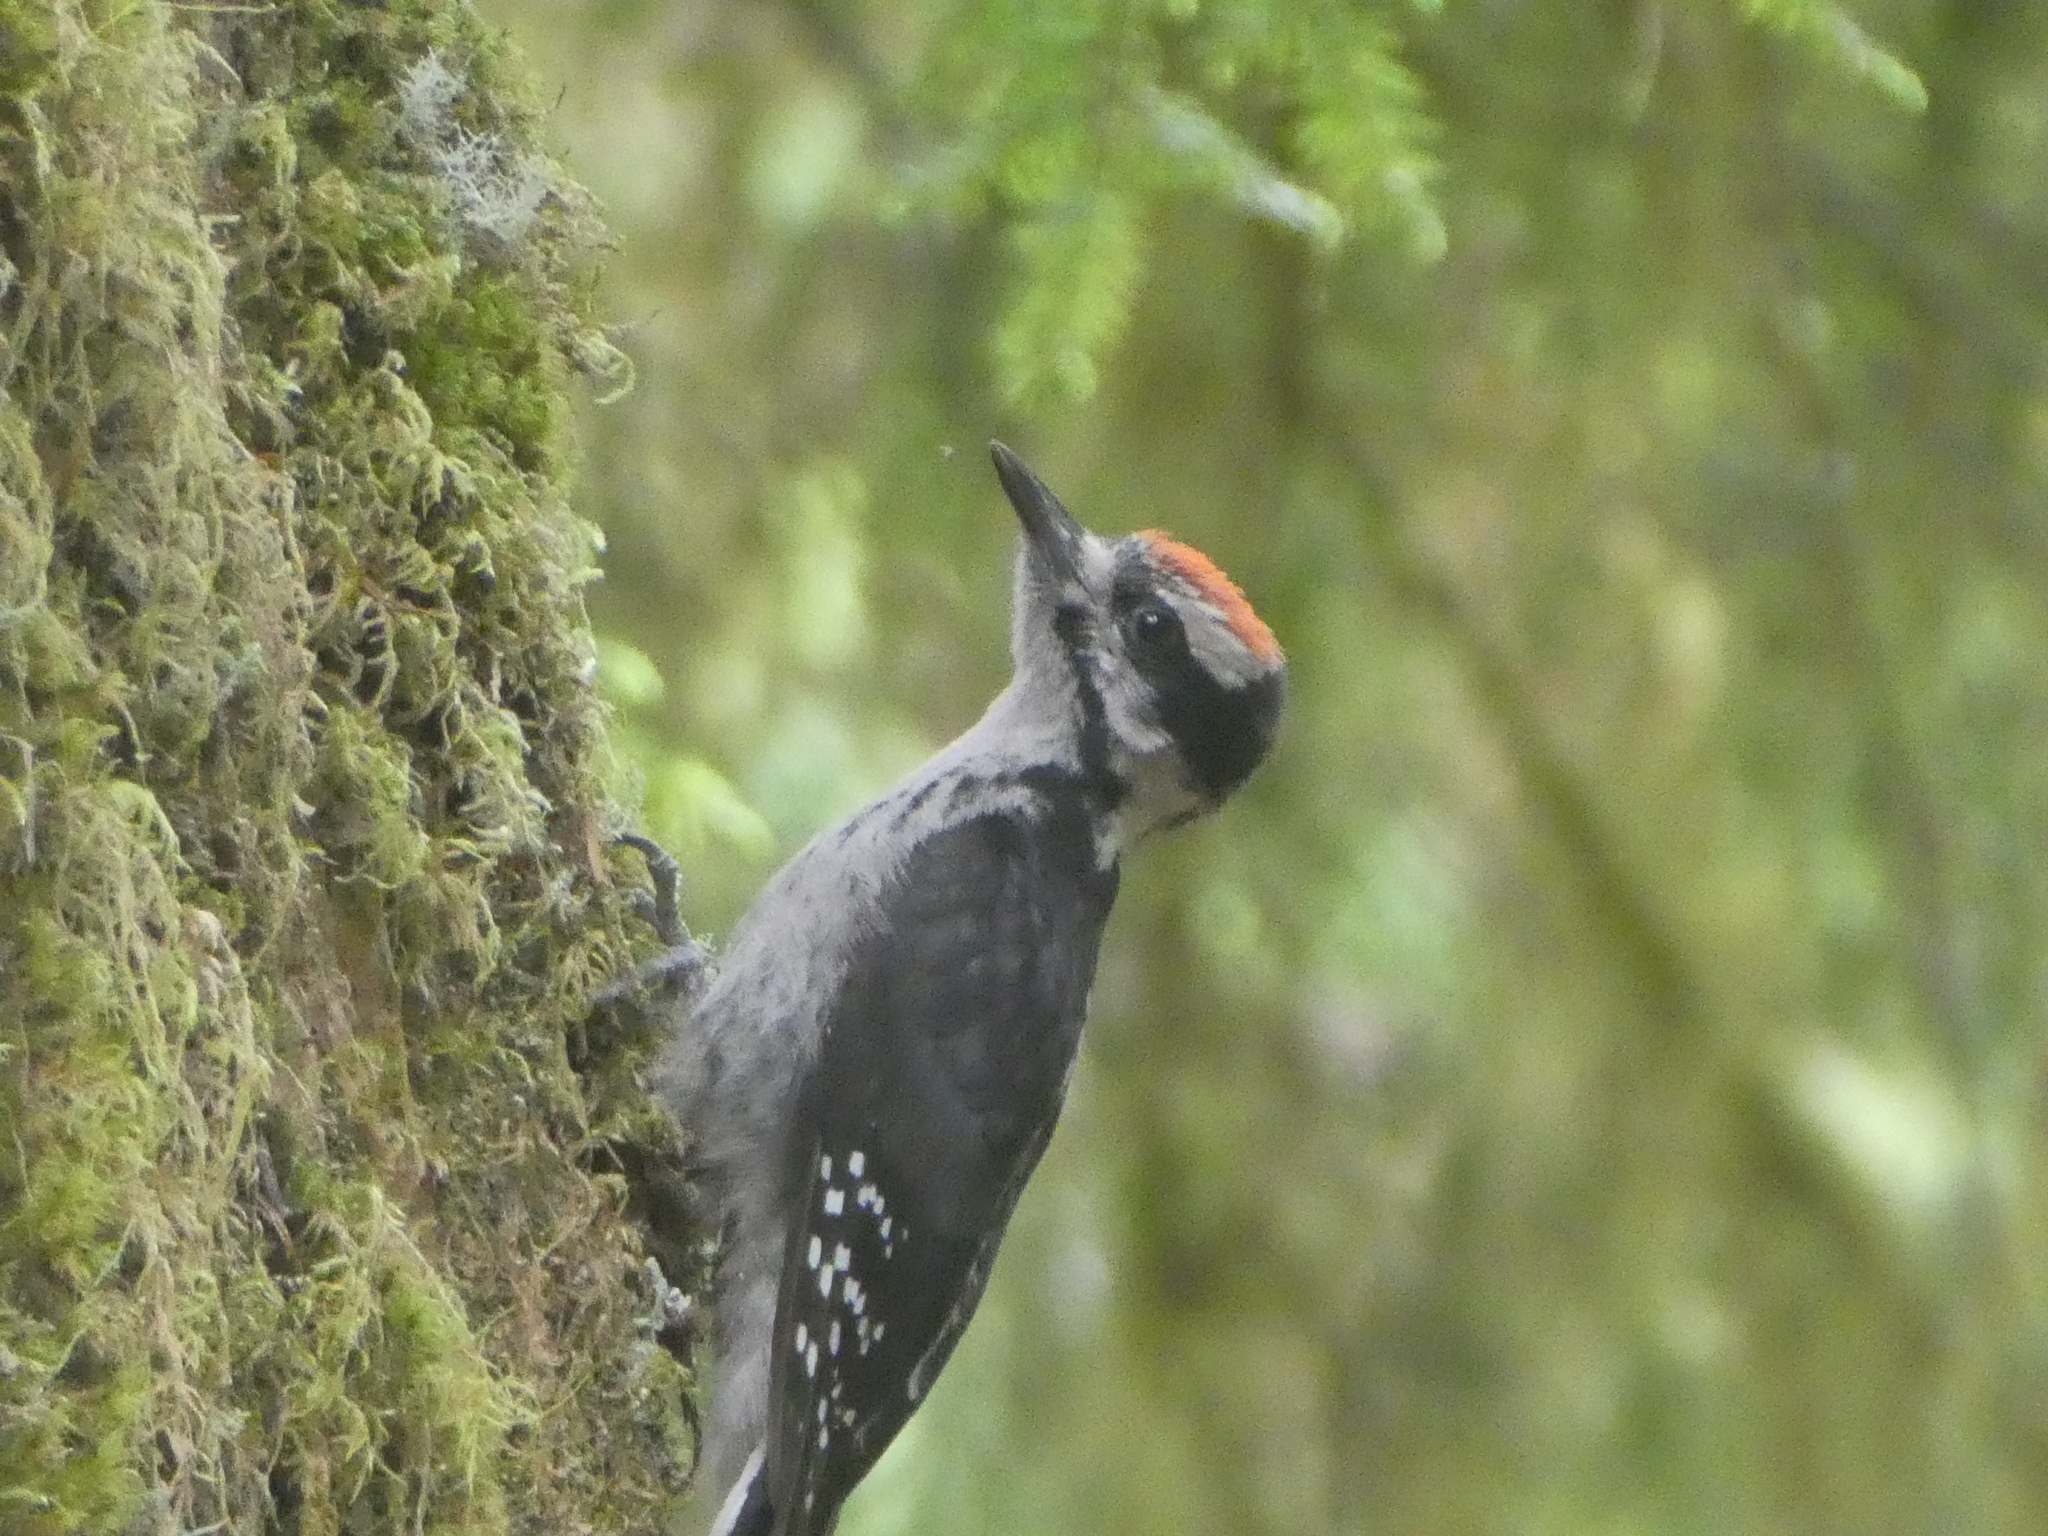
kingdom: Animalia
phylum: Chordata
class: Aves
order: Piciformes
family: Picidae
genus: Leuconotopicus
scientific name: Leuconotopicus villosus
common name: Hairy woodpecker
